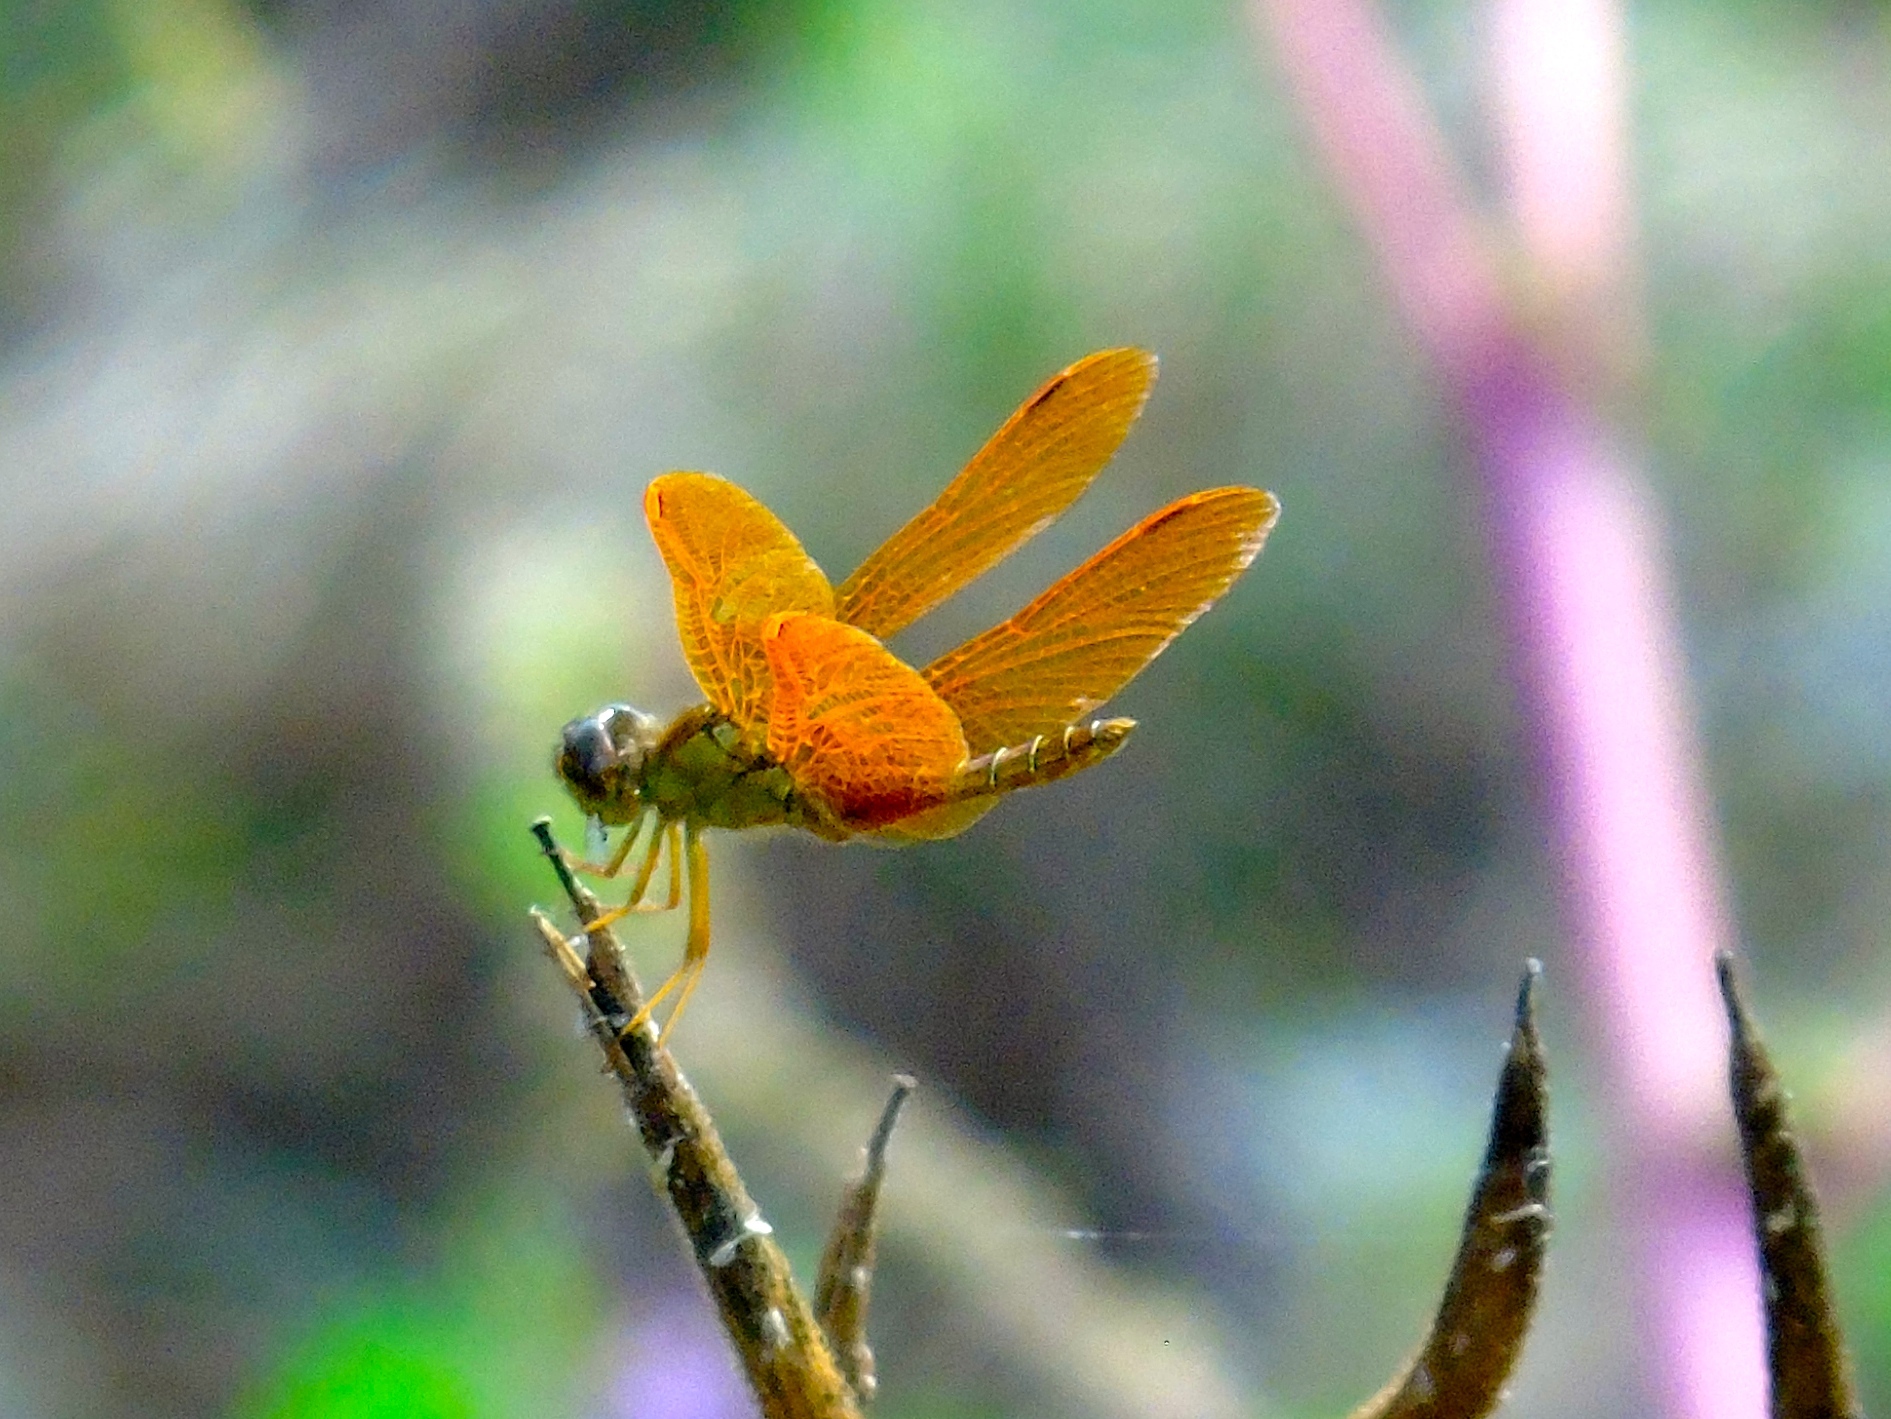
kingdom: Animalia
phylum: Arthropoda
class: Insecta
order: Odonata
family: Libellulidae
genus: Perithemis
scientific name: Perithemis intensa
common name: Mexican amberwing
